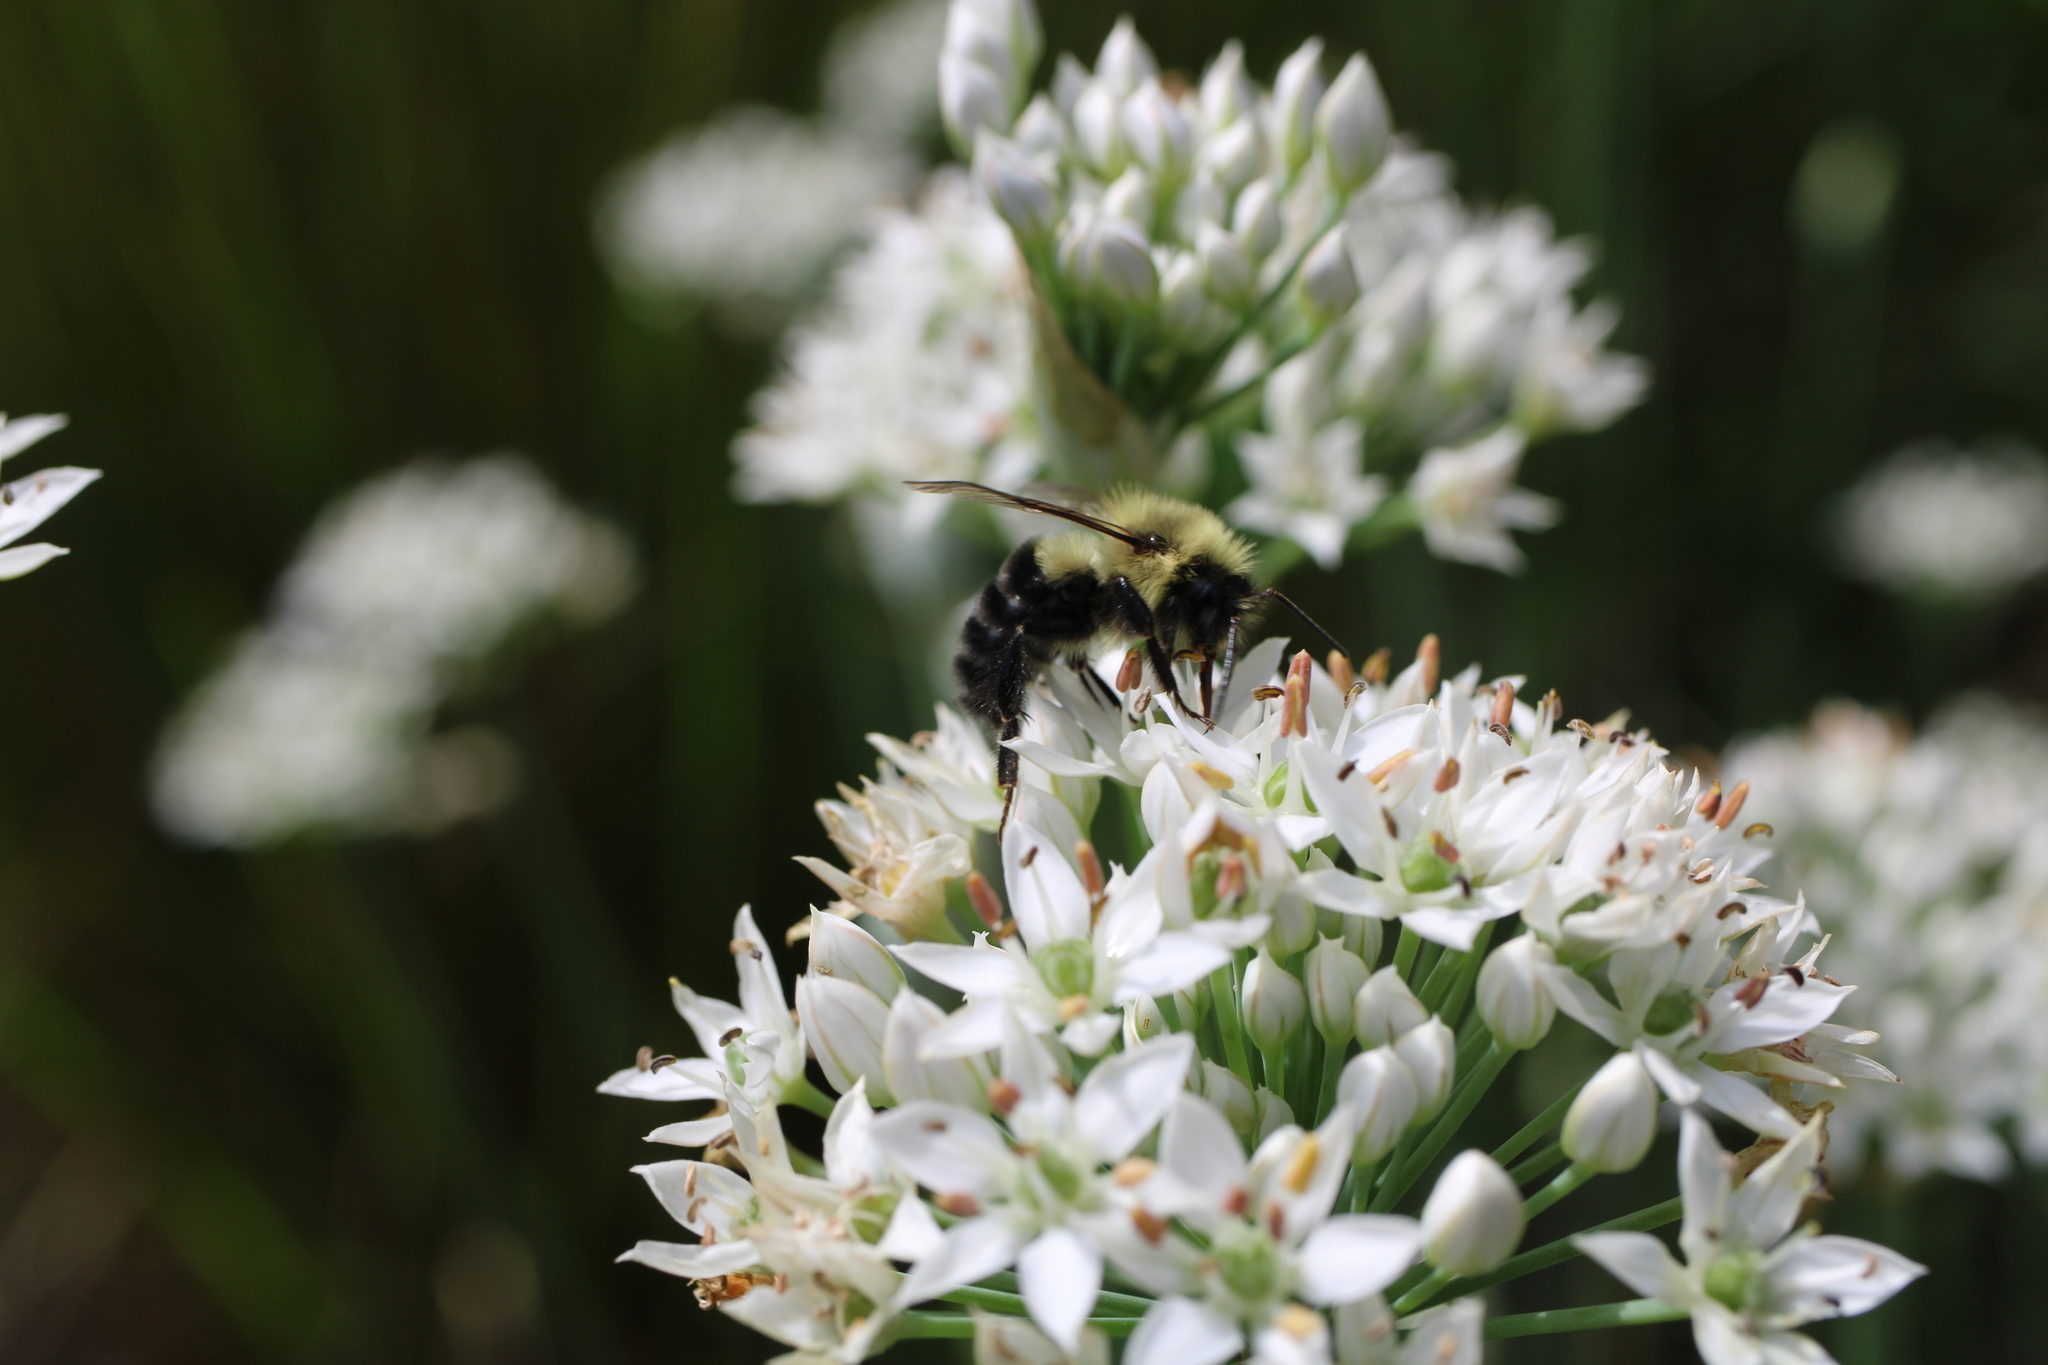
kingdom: Animalia
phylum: Arthropoda
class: Insecta
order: Hymenoptera
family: Apidae
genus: Bombus
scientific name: Bombus impatiens
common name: Common eastern bumble bee
